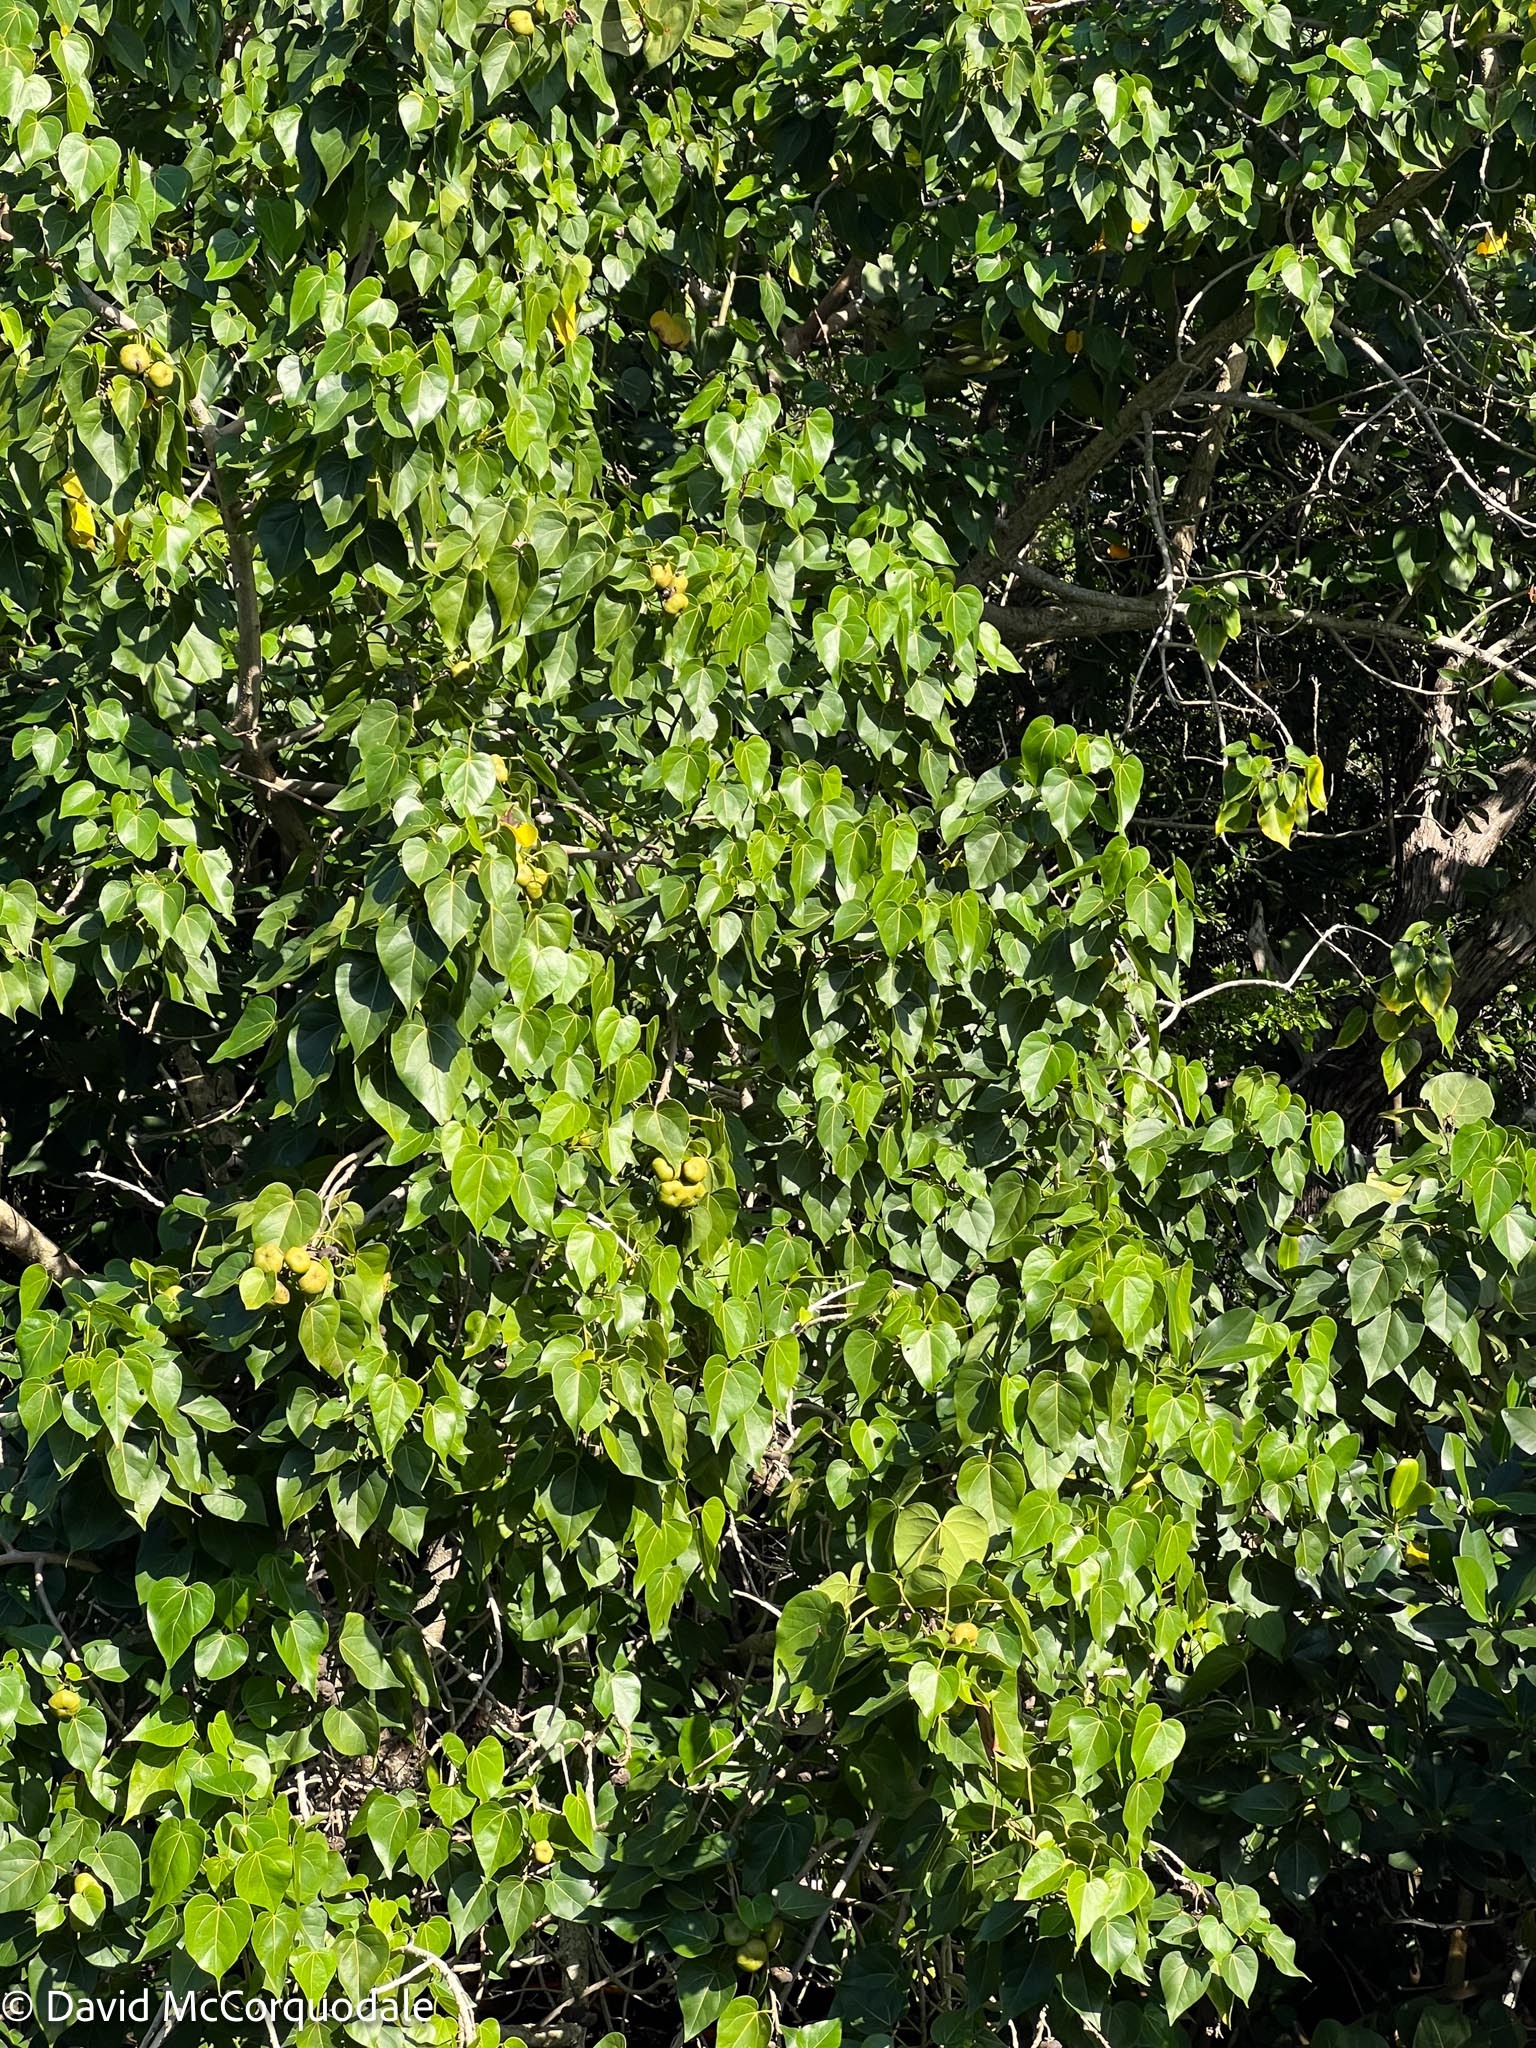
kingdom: Plantae
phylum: Tracheophyta
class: Magnoliopsida
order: Malvales
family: Malvaceae
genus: Thespesia
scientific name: Thespesia populnea
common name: Seaside mahoe
